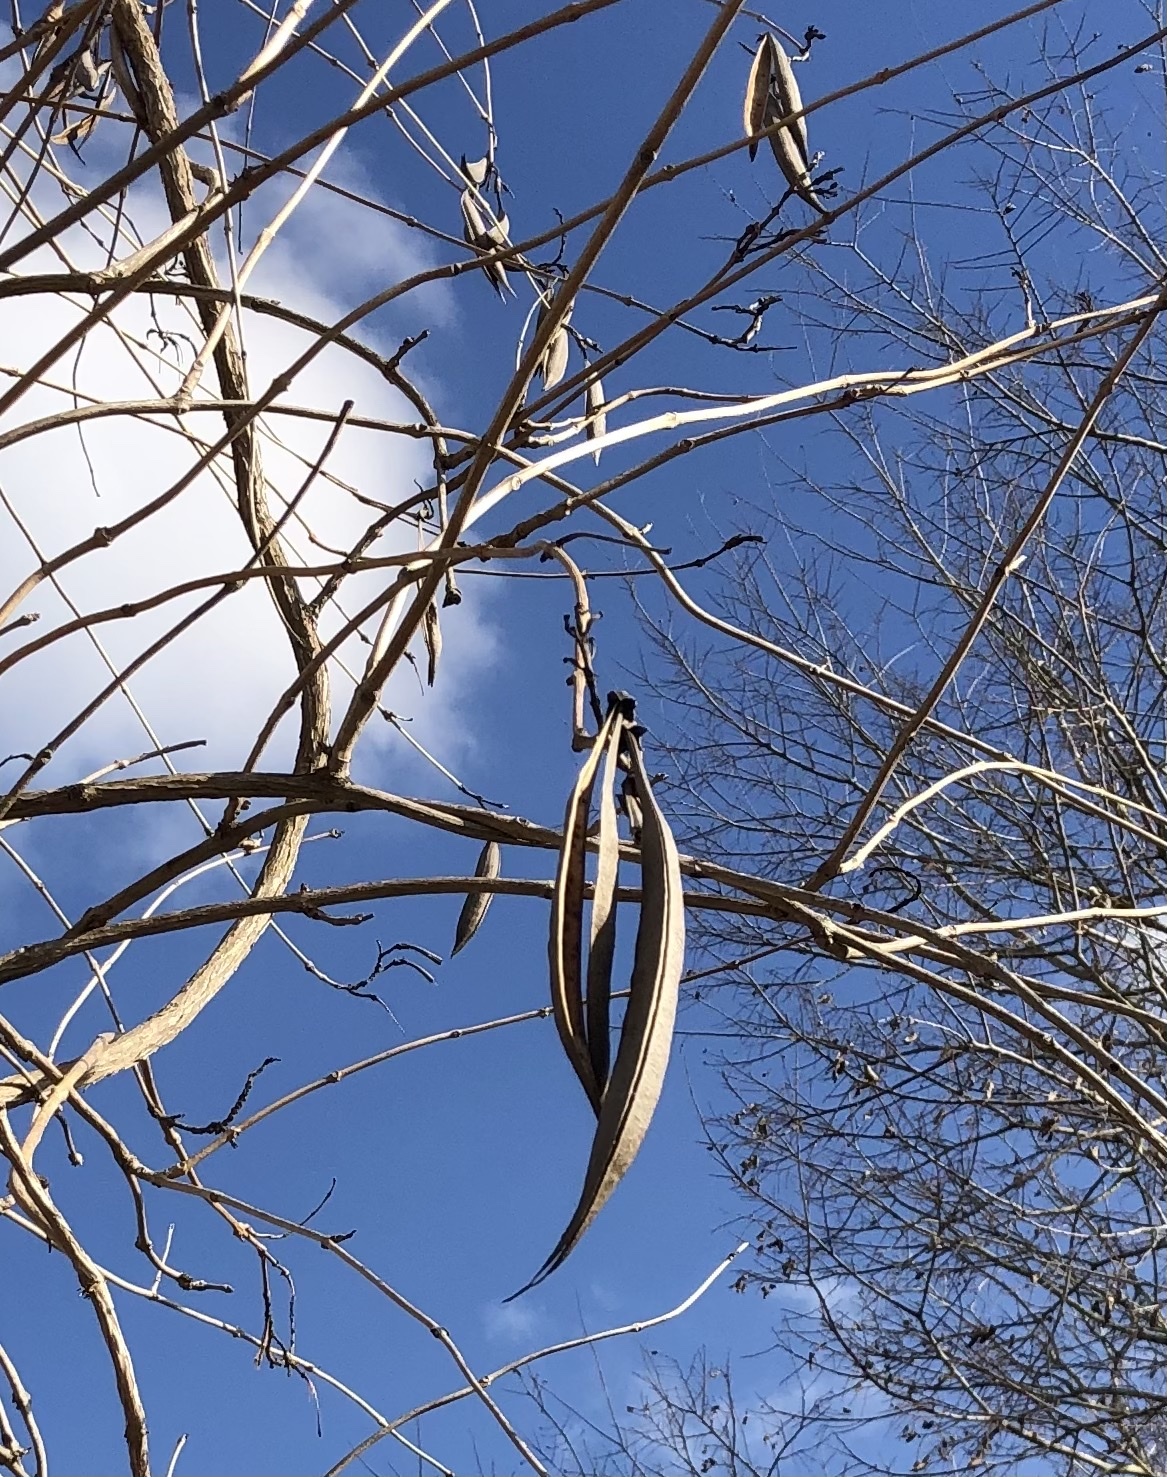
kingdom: Plantae
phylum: Tracheophyta
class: Magnoliopsida
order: Lamiales
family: Bignoniaceae
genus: Campsis
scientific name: Campsis radicans
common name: Trumpet-creeper
